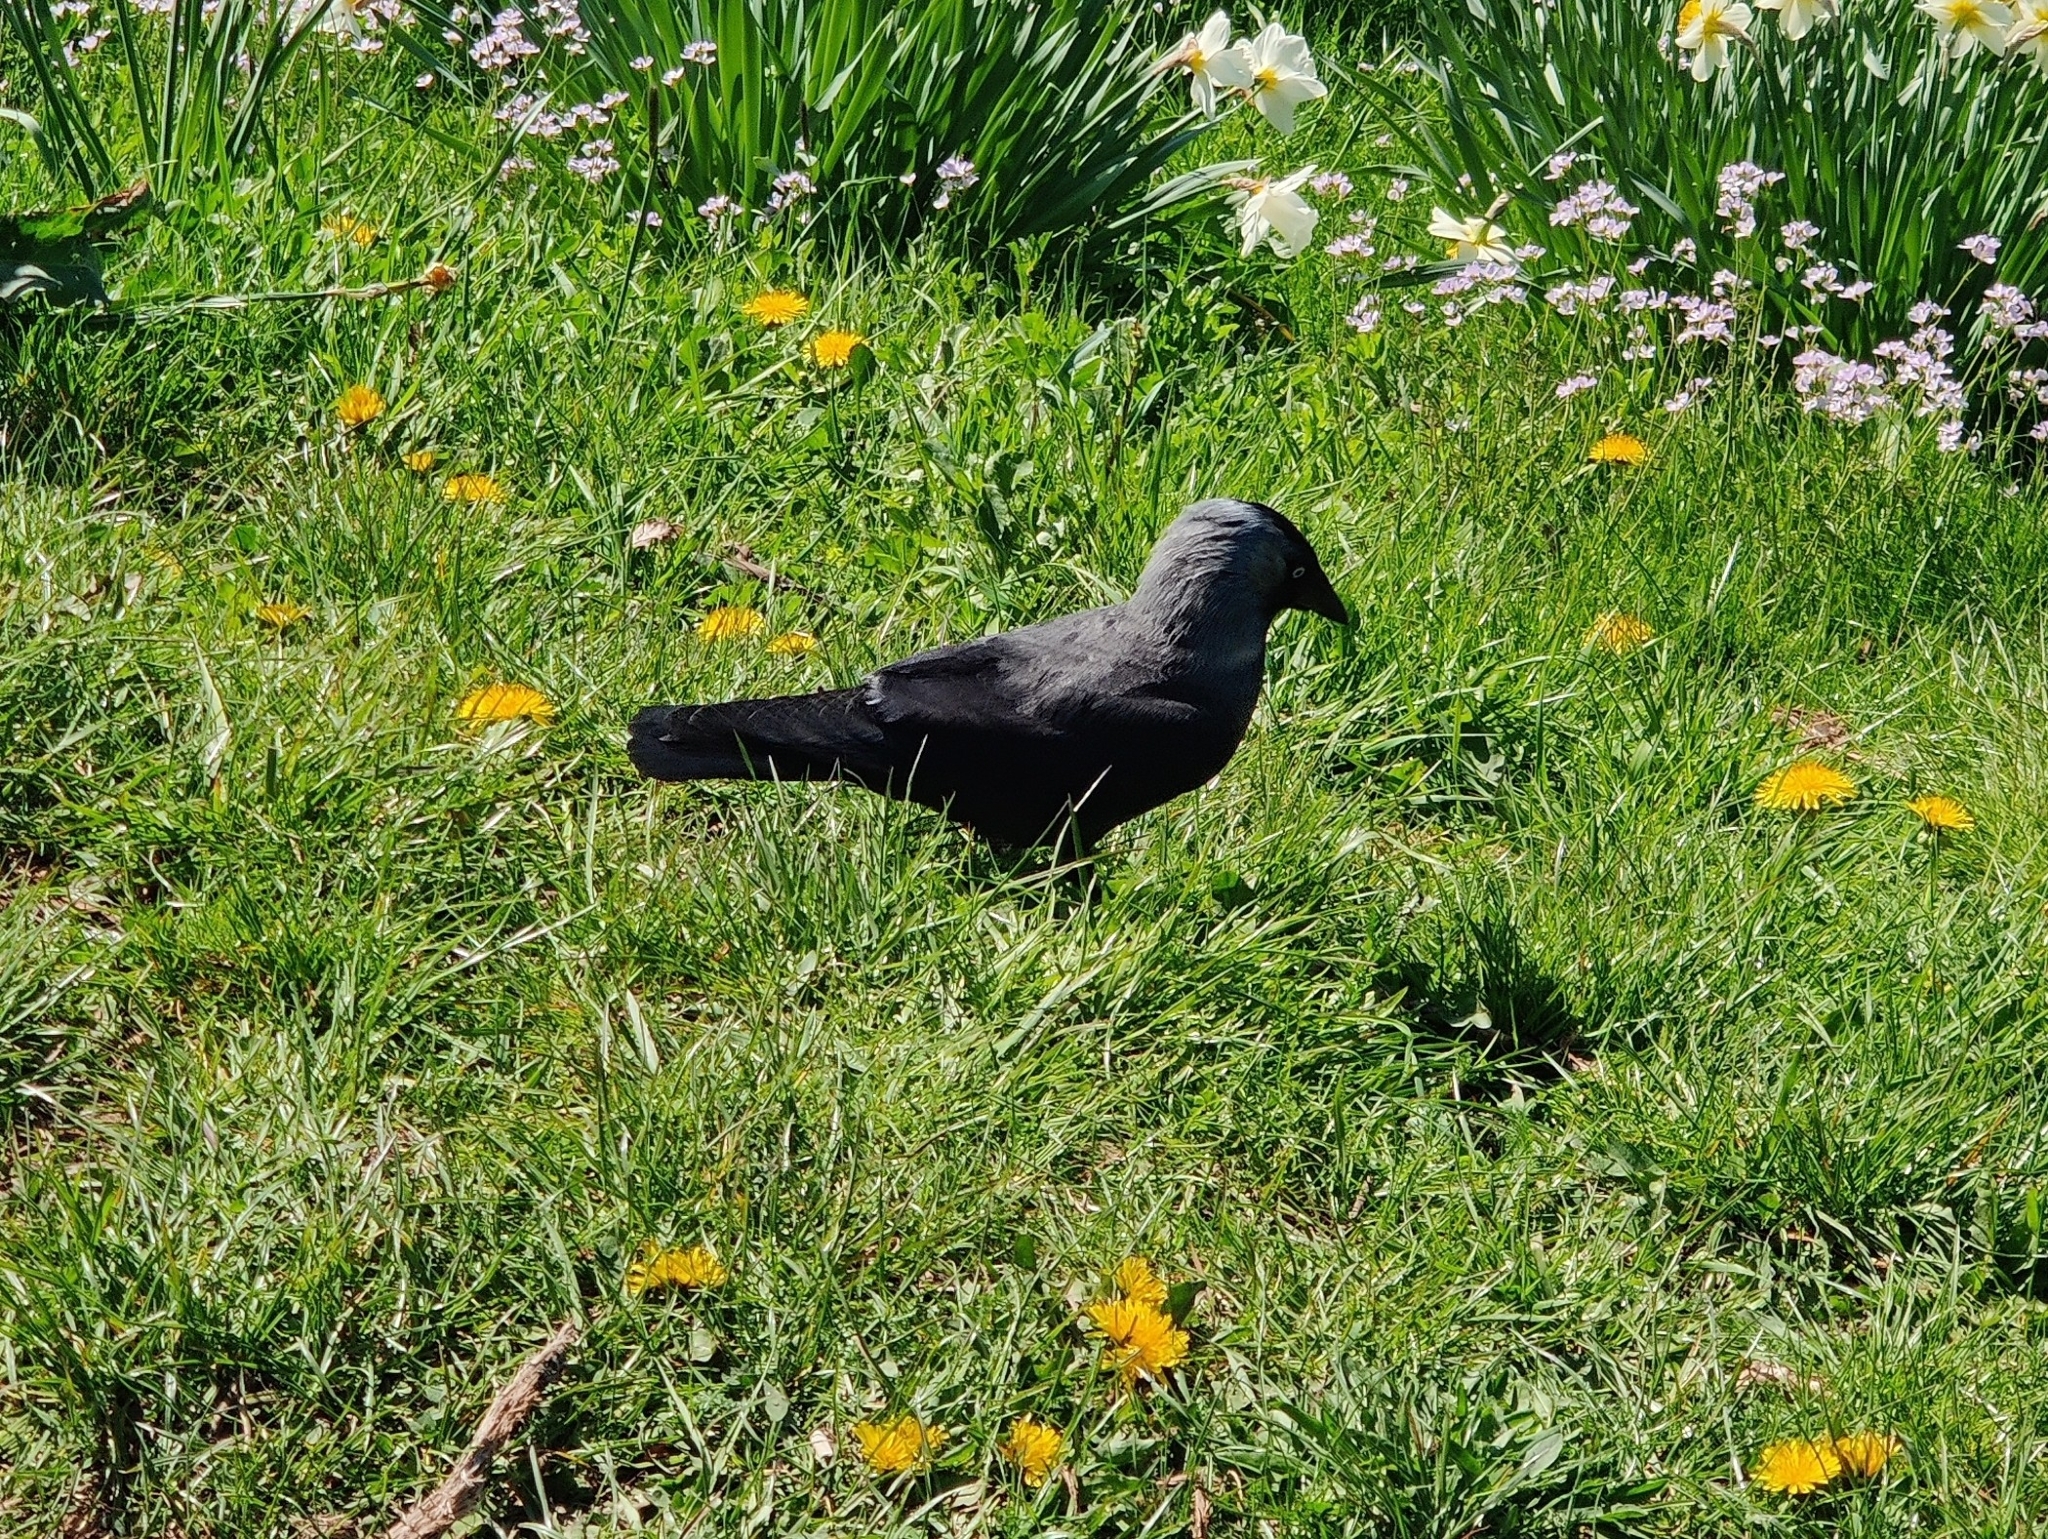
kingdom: Animalia
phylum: Chordata
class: Aves
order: Passeriformes
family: Corvidae
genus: Coloeus
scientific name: Coloeus monedula
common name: Western jackdaw
